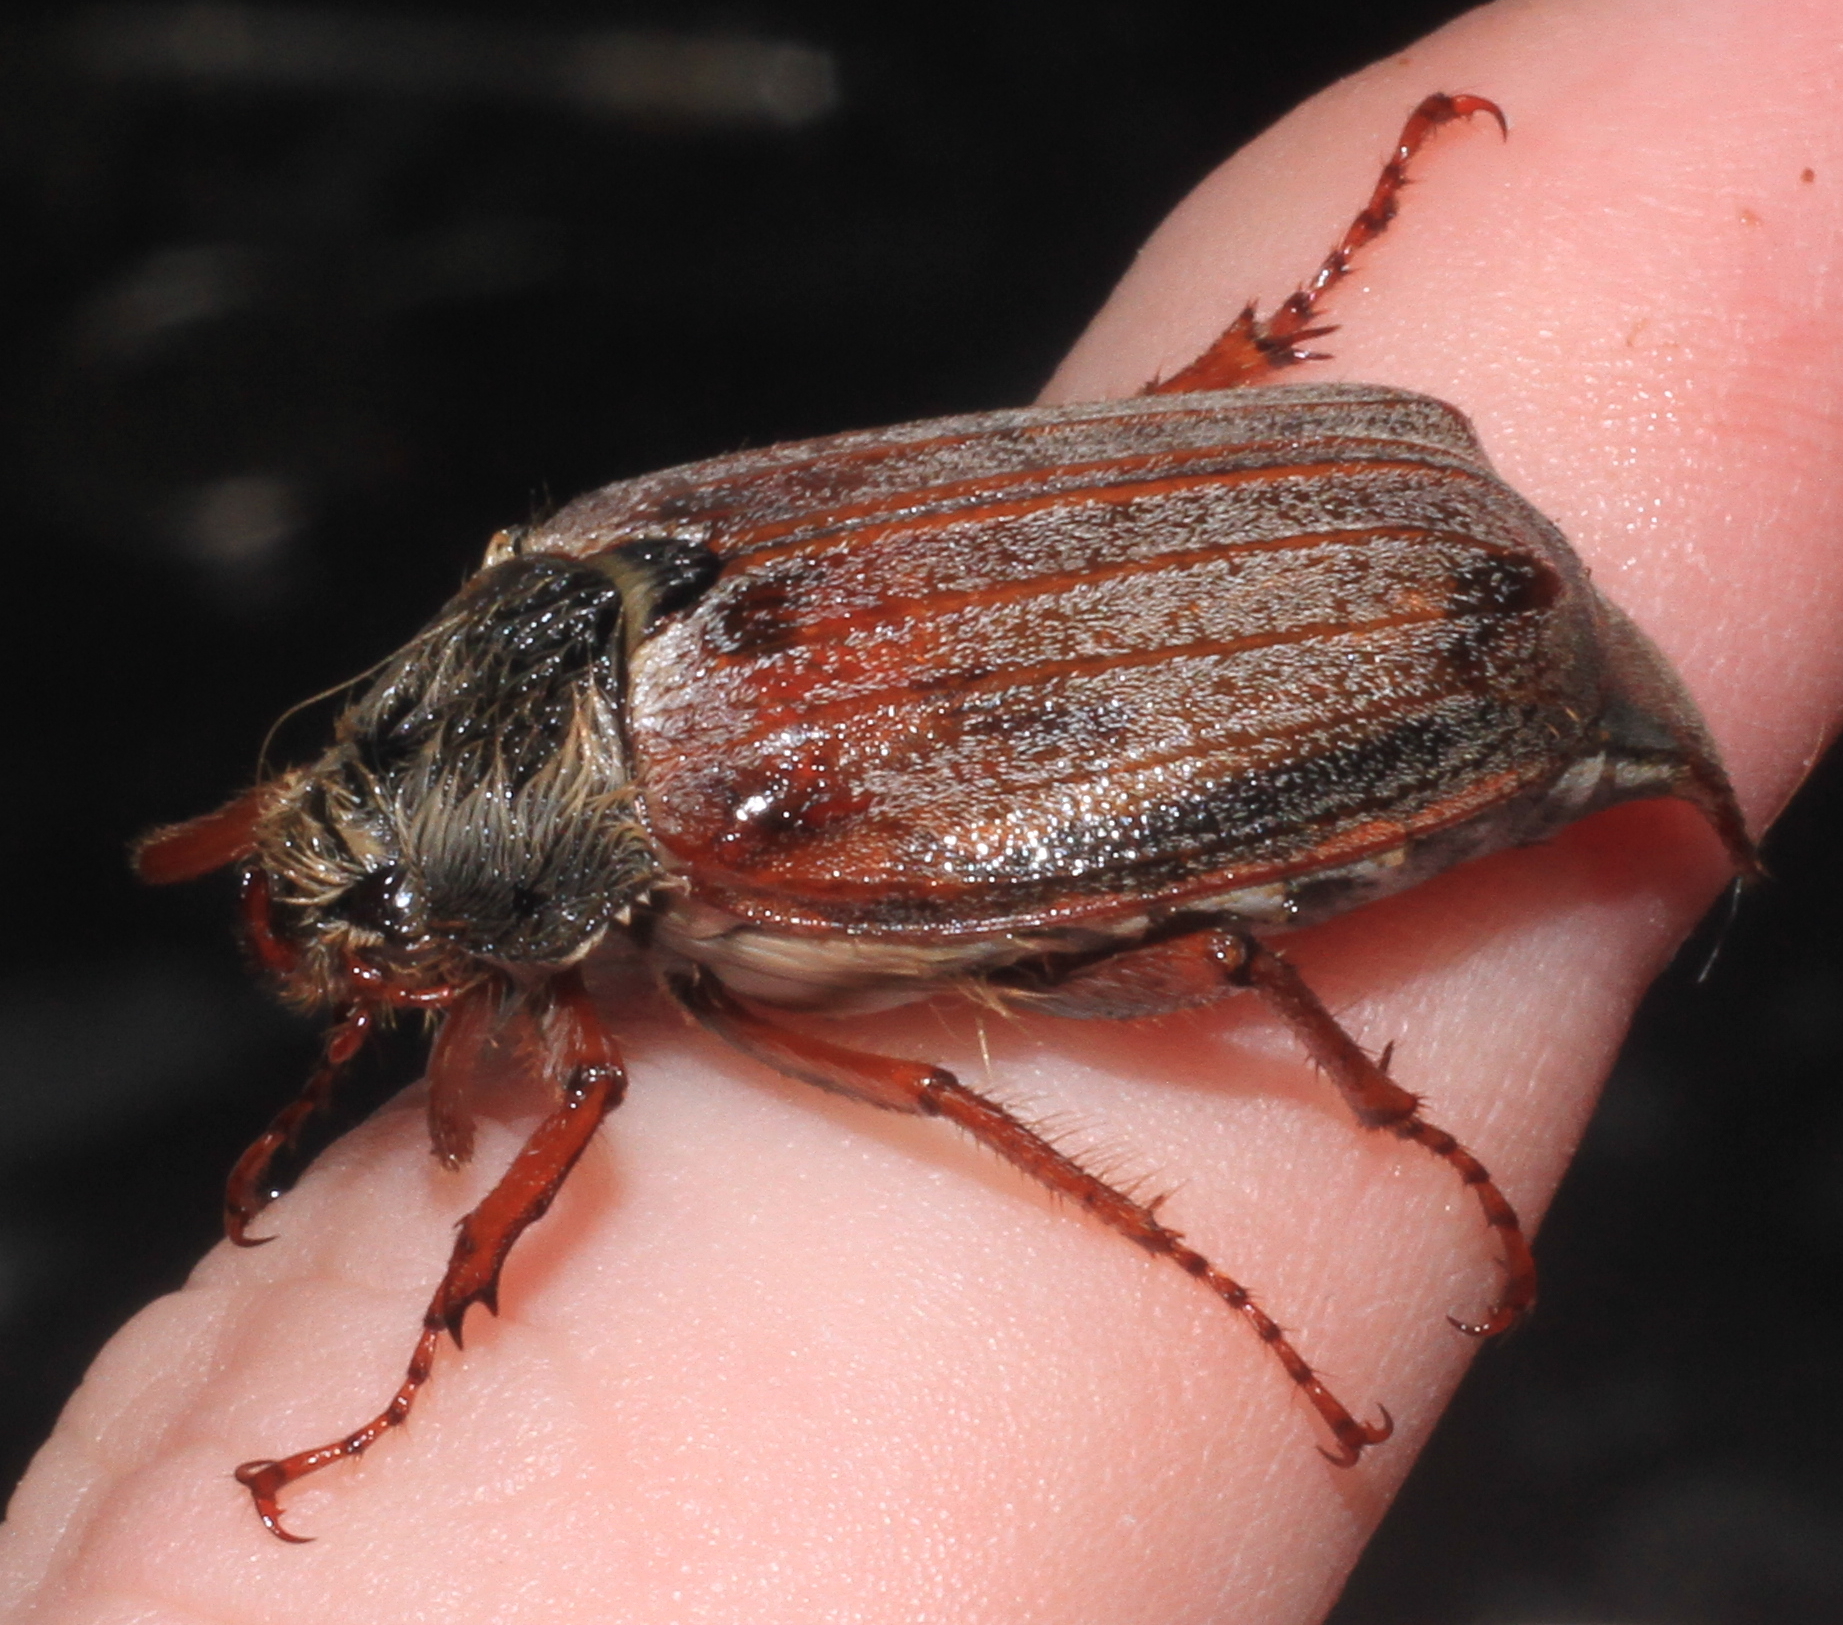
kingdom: Animalia
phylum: Arthropoda
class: Insecta
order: Coleoptera
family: Scarabaeidae
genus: Melolontha
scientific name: Melolontha melolontha
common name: Cockchafer maybeetle
